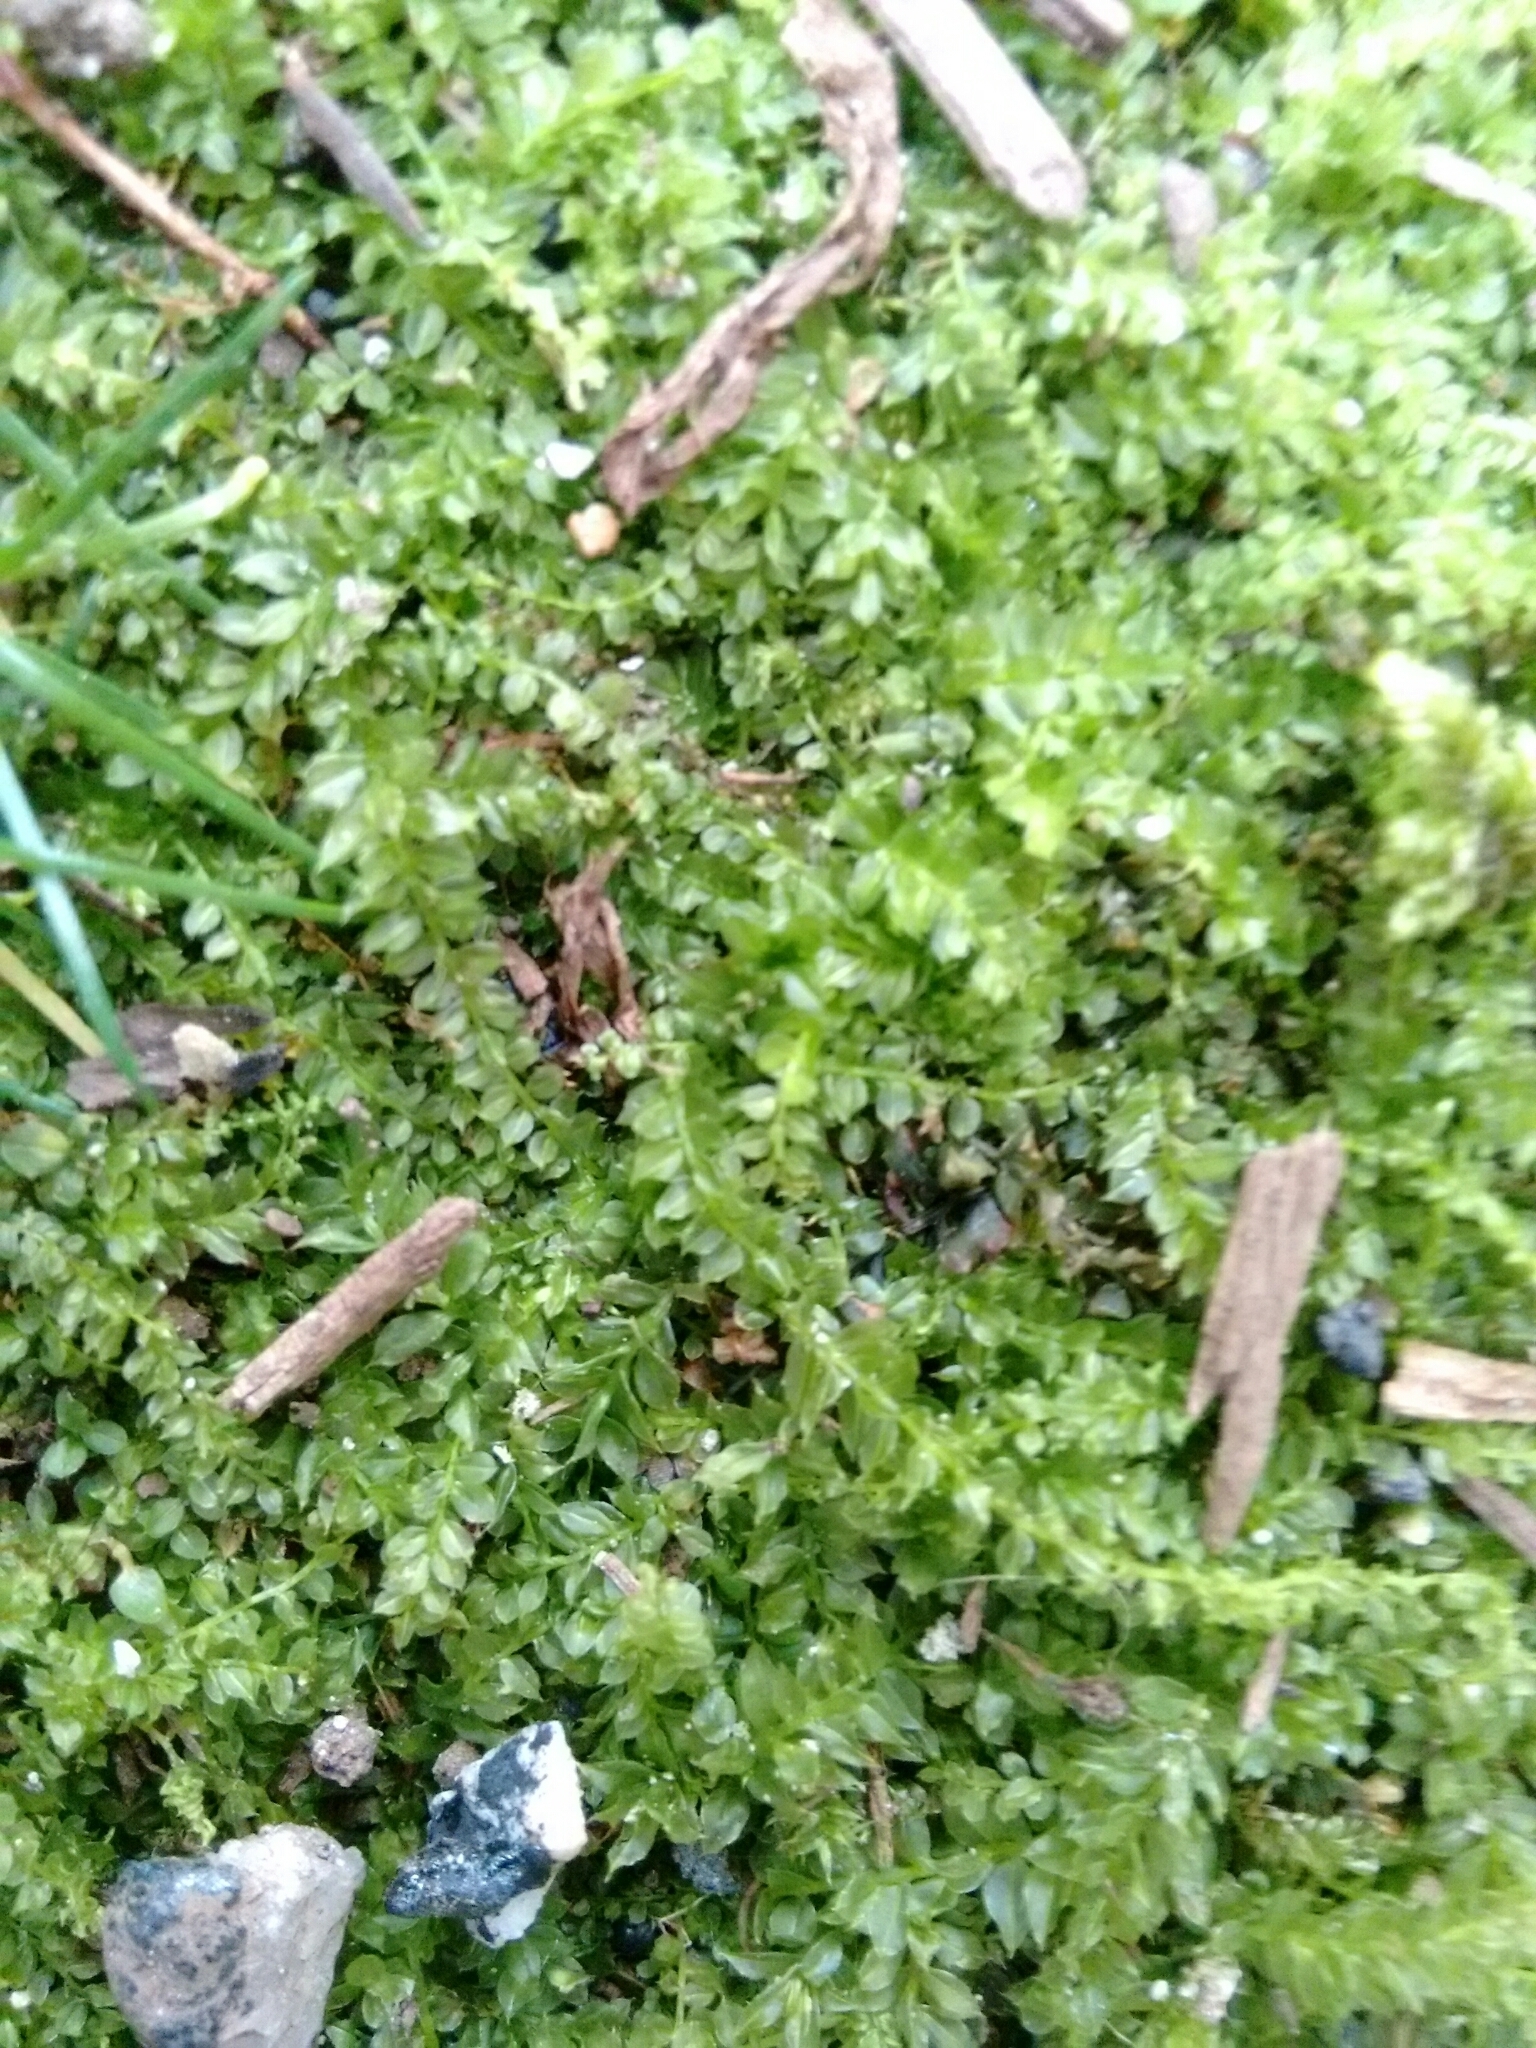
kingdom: Plantae
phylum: Bryophyta
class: Bryopsida
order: Bryales
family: Mniaceae
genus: Plagiomnium
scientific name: Plagiomnium cuspidatum
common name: Woodsy leafy moss
